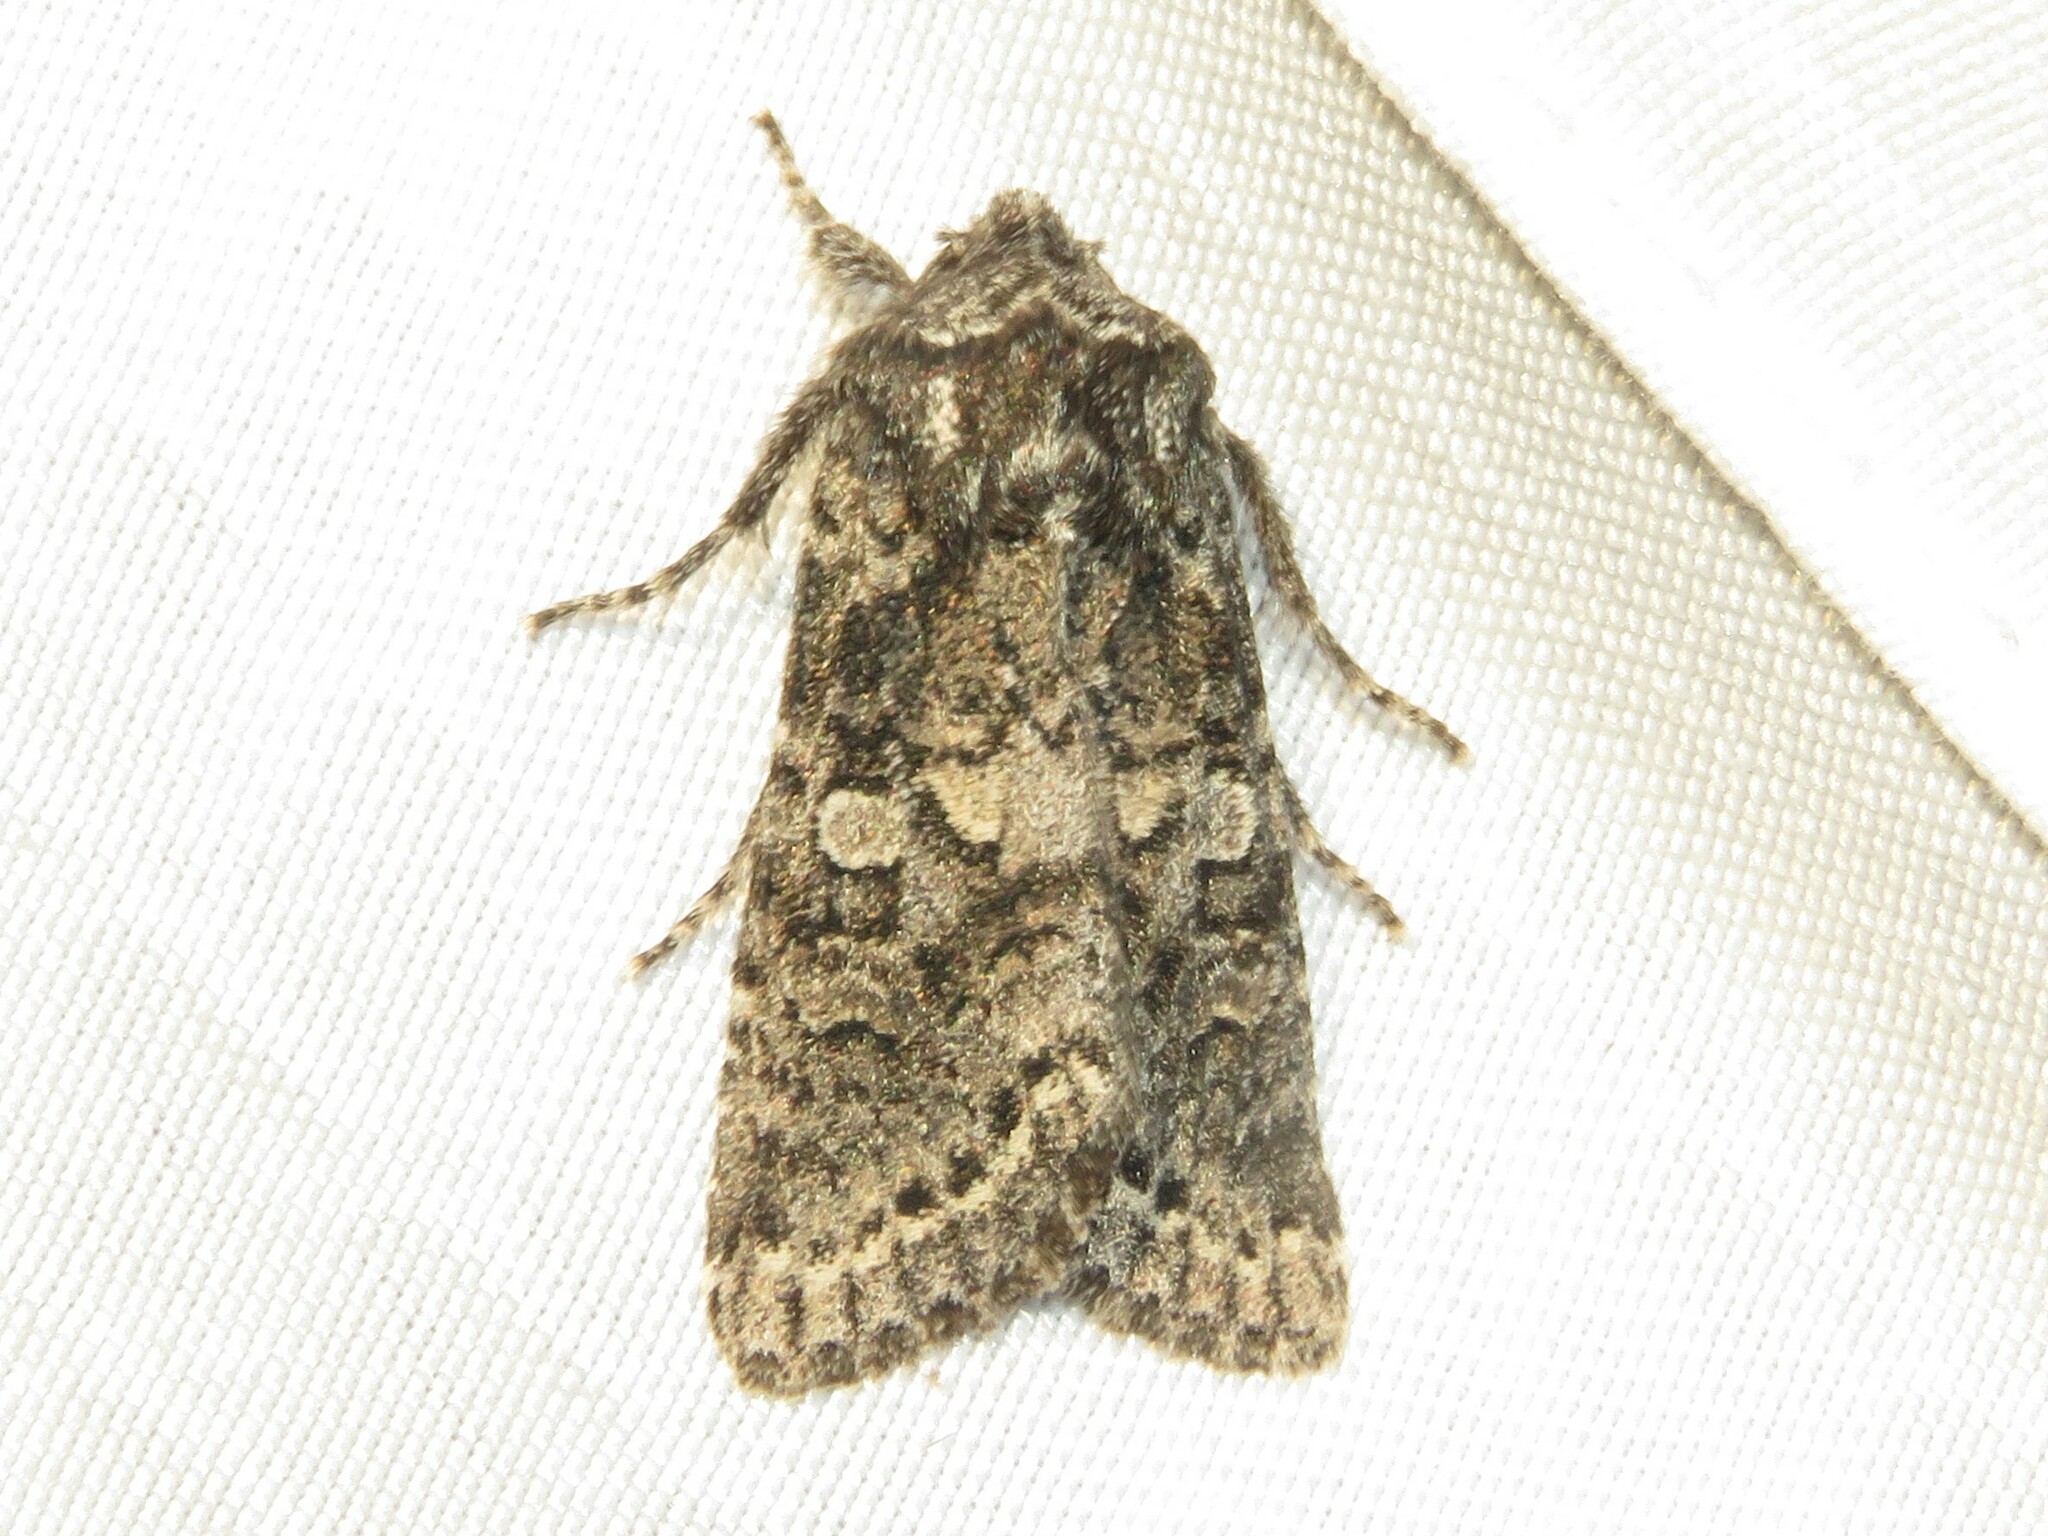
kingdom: Animalia
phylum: Arthropoda
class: Insecta
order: Lepidoptera
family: Noctuidae
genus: Egira
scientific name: Egira dolosa
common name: Lined black aspen cat.
